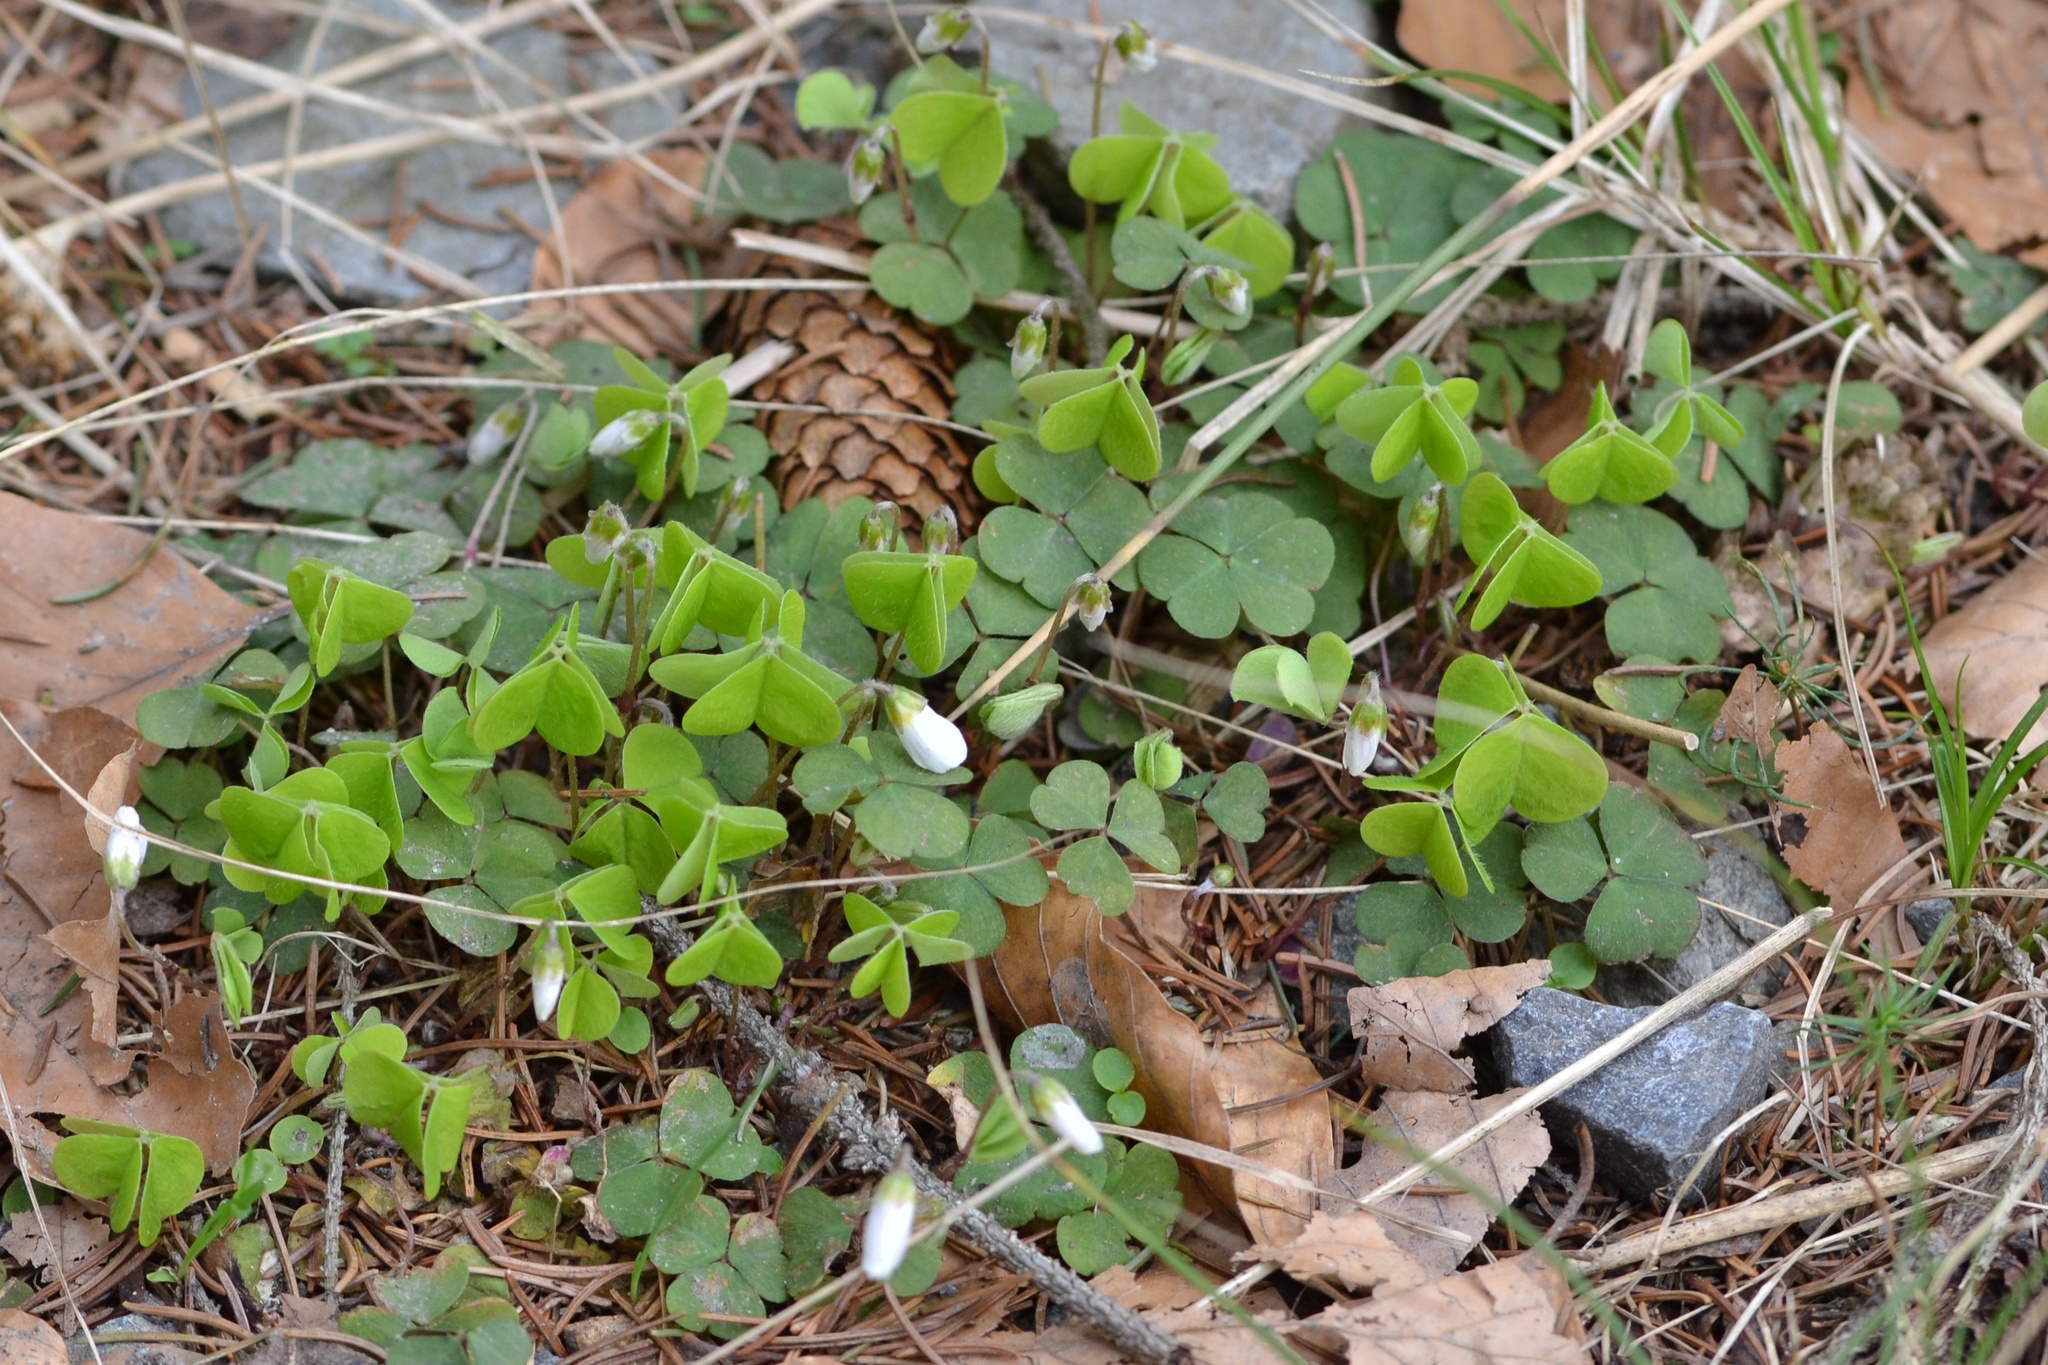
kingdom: Plantae
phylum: Tracheophyta
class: Magnoliopsida
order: Oxalidales
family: Oxalidaceae
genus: Oxalis
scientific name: Oxalis acetosella
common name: Wood-sorrel
